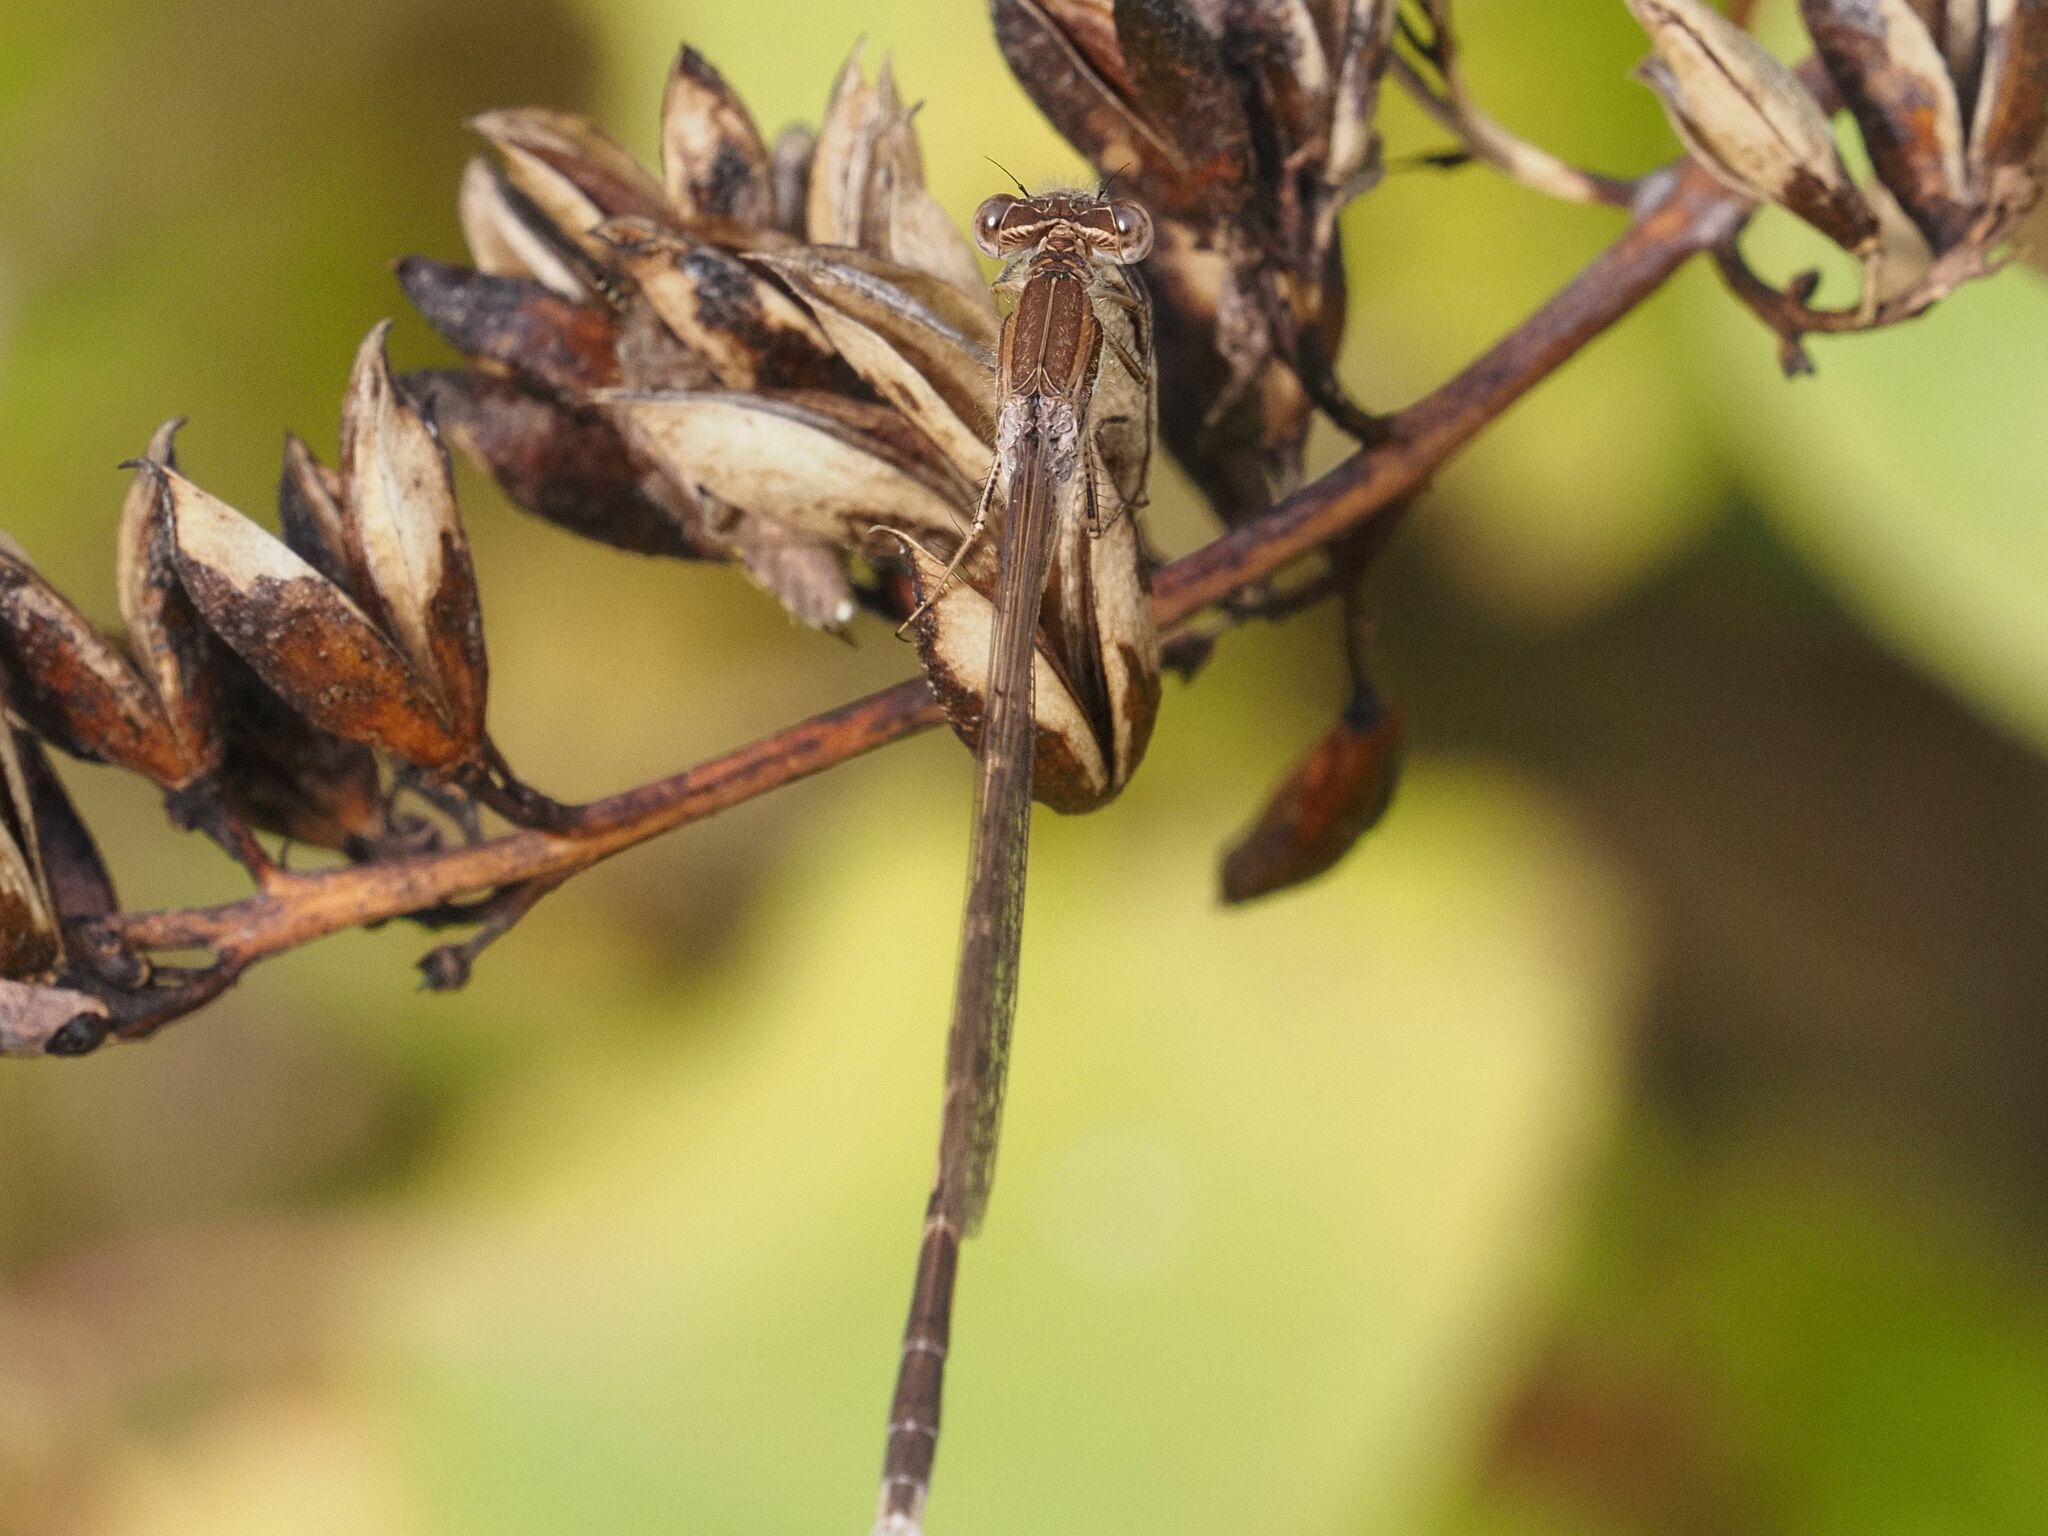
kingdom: Animalia
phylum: Arthropoda
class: Insecta
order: Odonata
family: Lestidae
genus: Sympecma
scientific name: Sympecma fusca
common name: Common winter damsel
